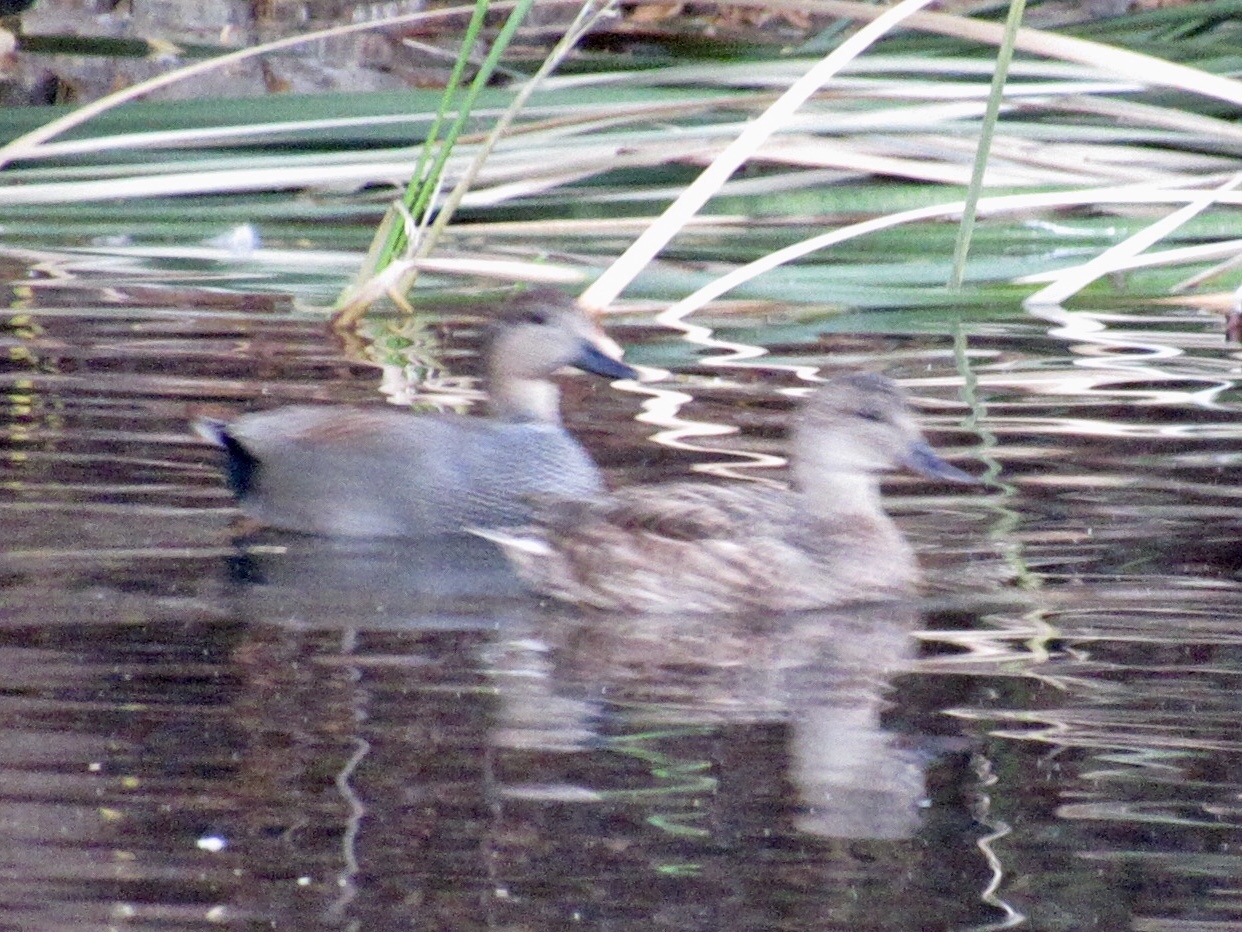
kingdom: Animalia
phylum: Chordata
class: Aves
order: Anseriformes
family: Anatidae
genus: Mareca
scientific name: Mareca strepera
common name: Gadwall
